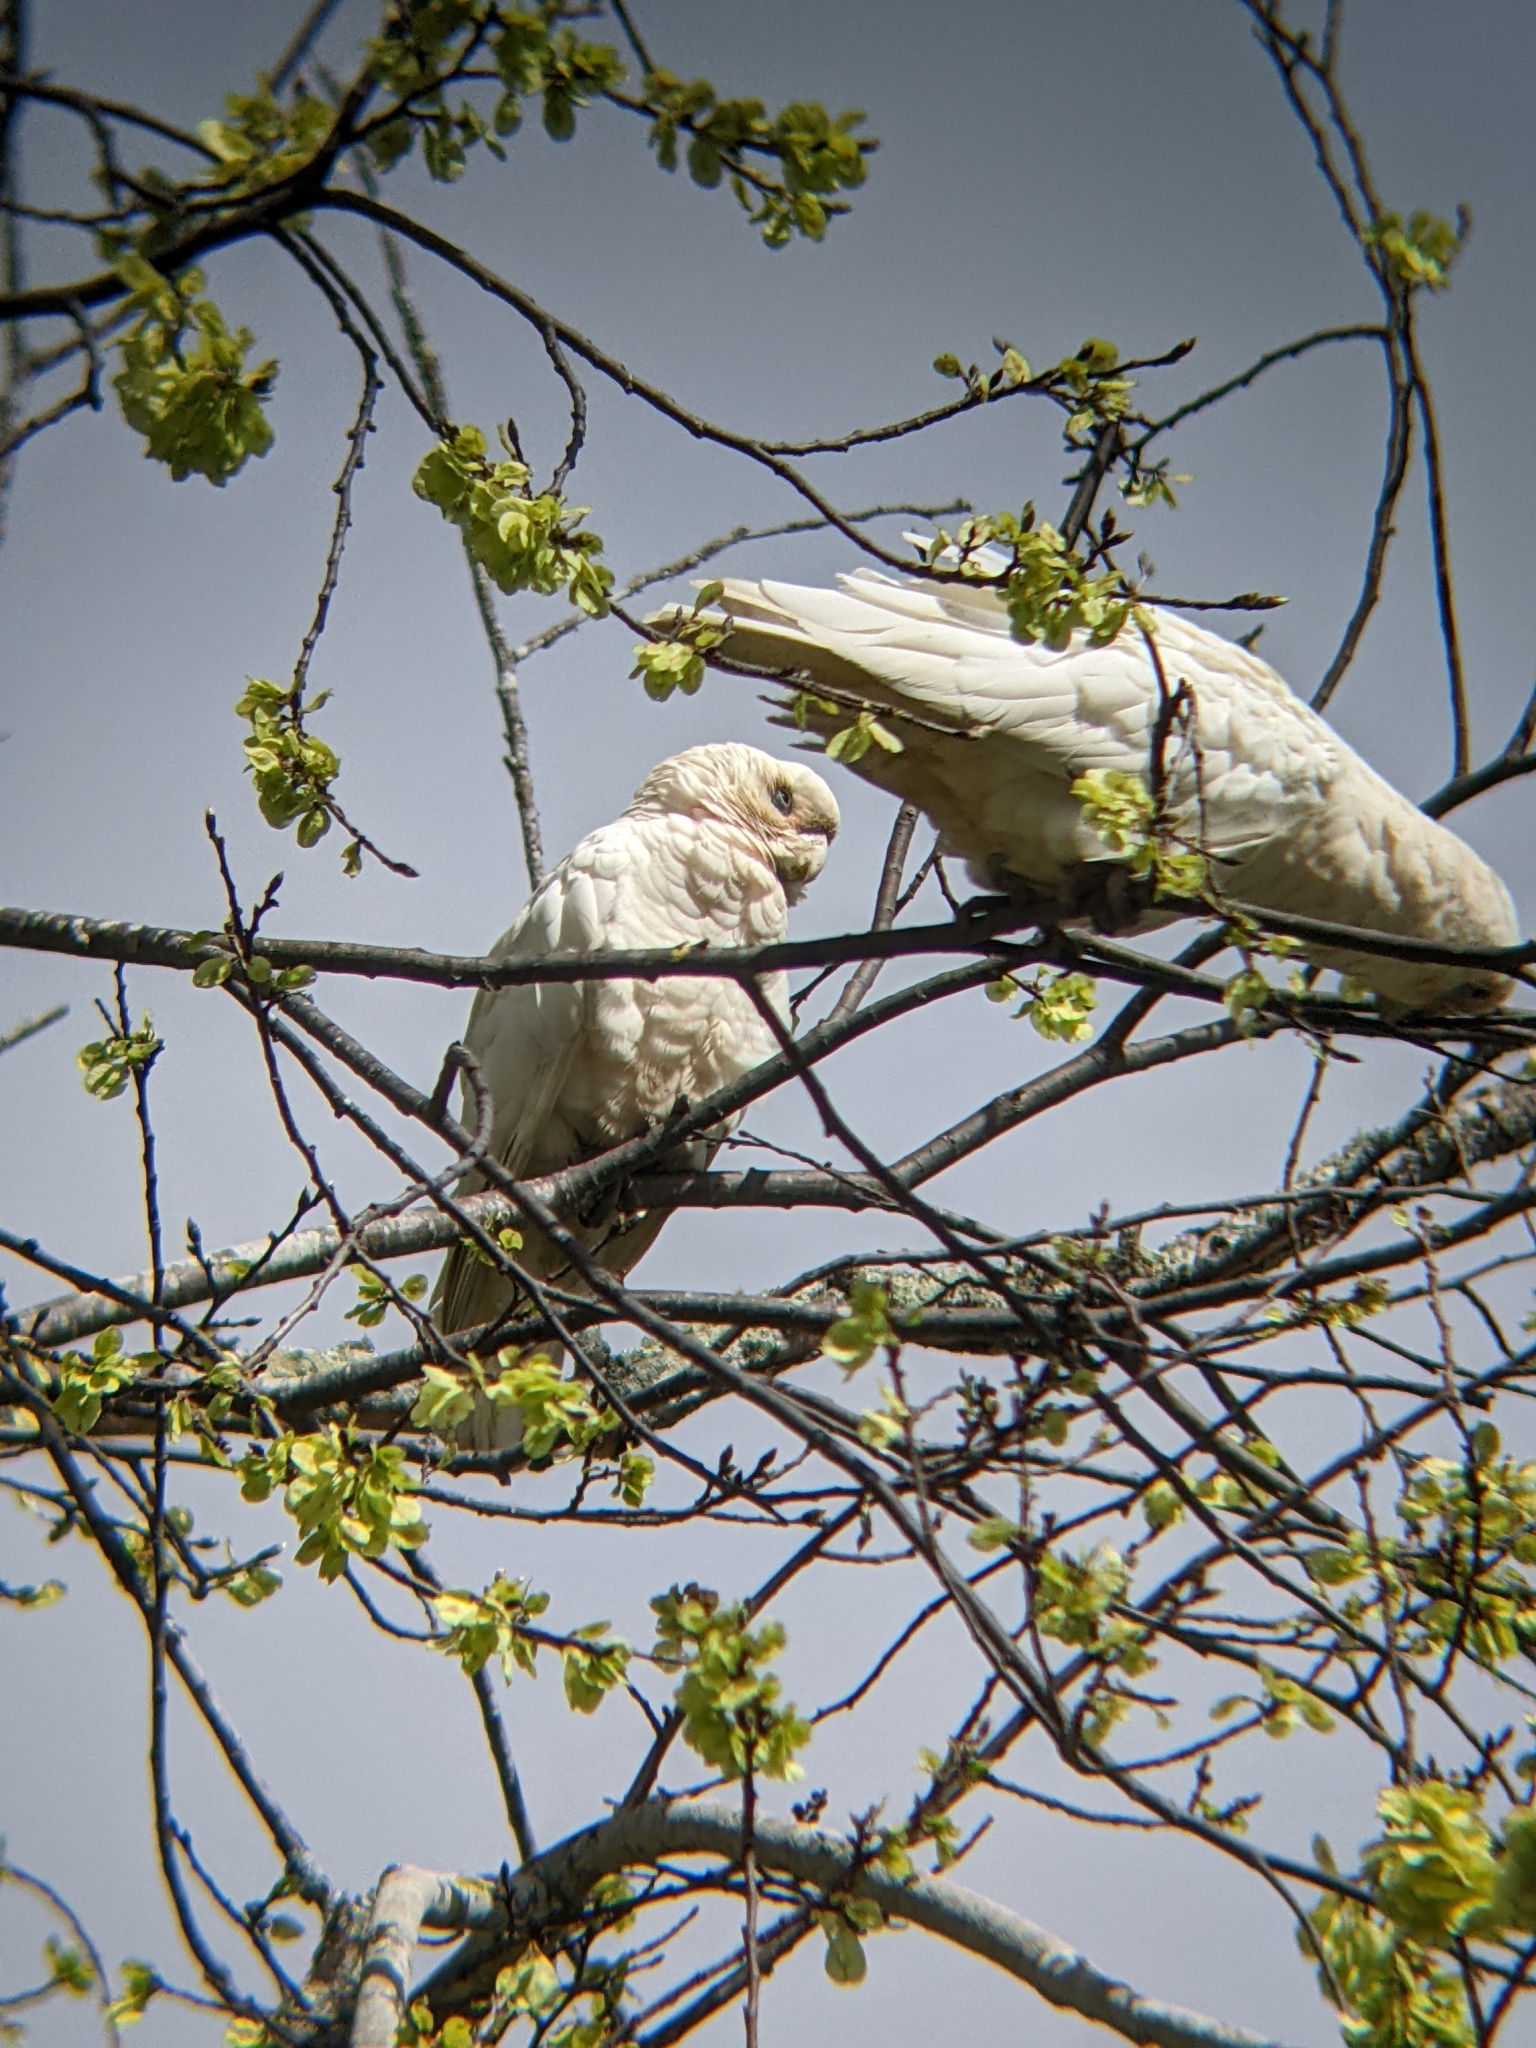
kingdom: Animalia
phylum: Chordata
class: Aves
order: Psittaciformes
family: Psittacidae
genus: Cacatua
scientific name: Cacatua sanguinea
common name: Little corella
